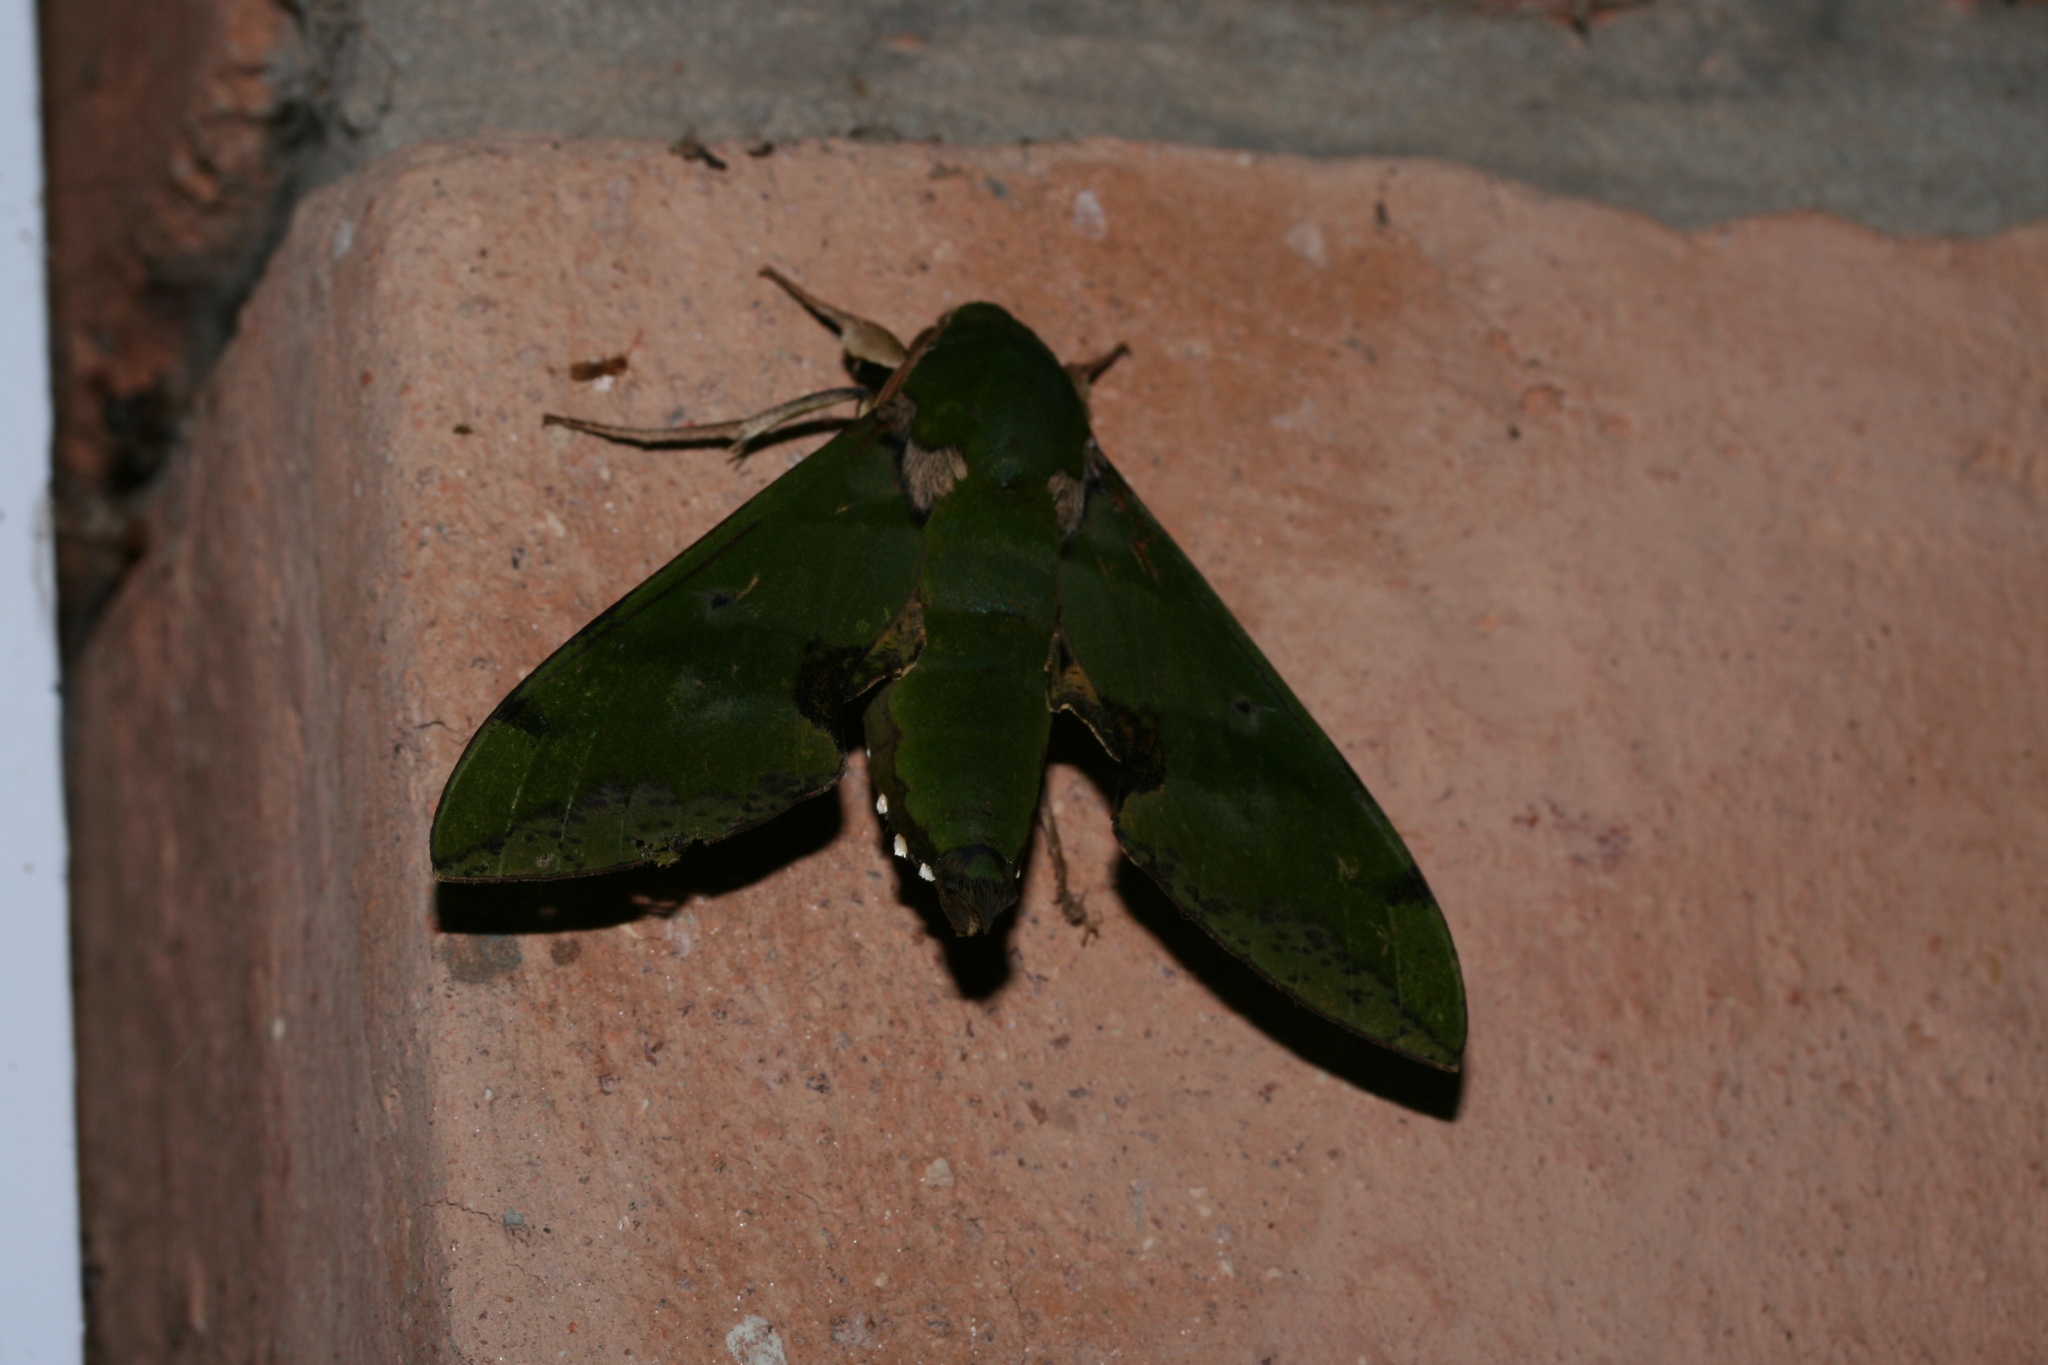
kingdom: Animalia
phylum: Arthropoda
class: Insecta
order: Lepidoptera
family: Sphingidae
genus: Euchloron
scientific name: Euchloron megaera
